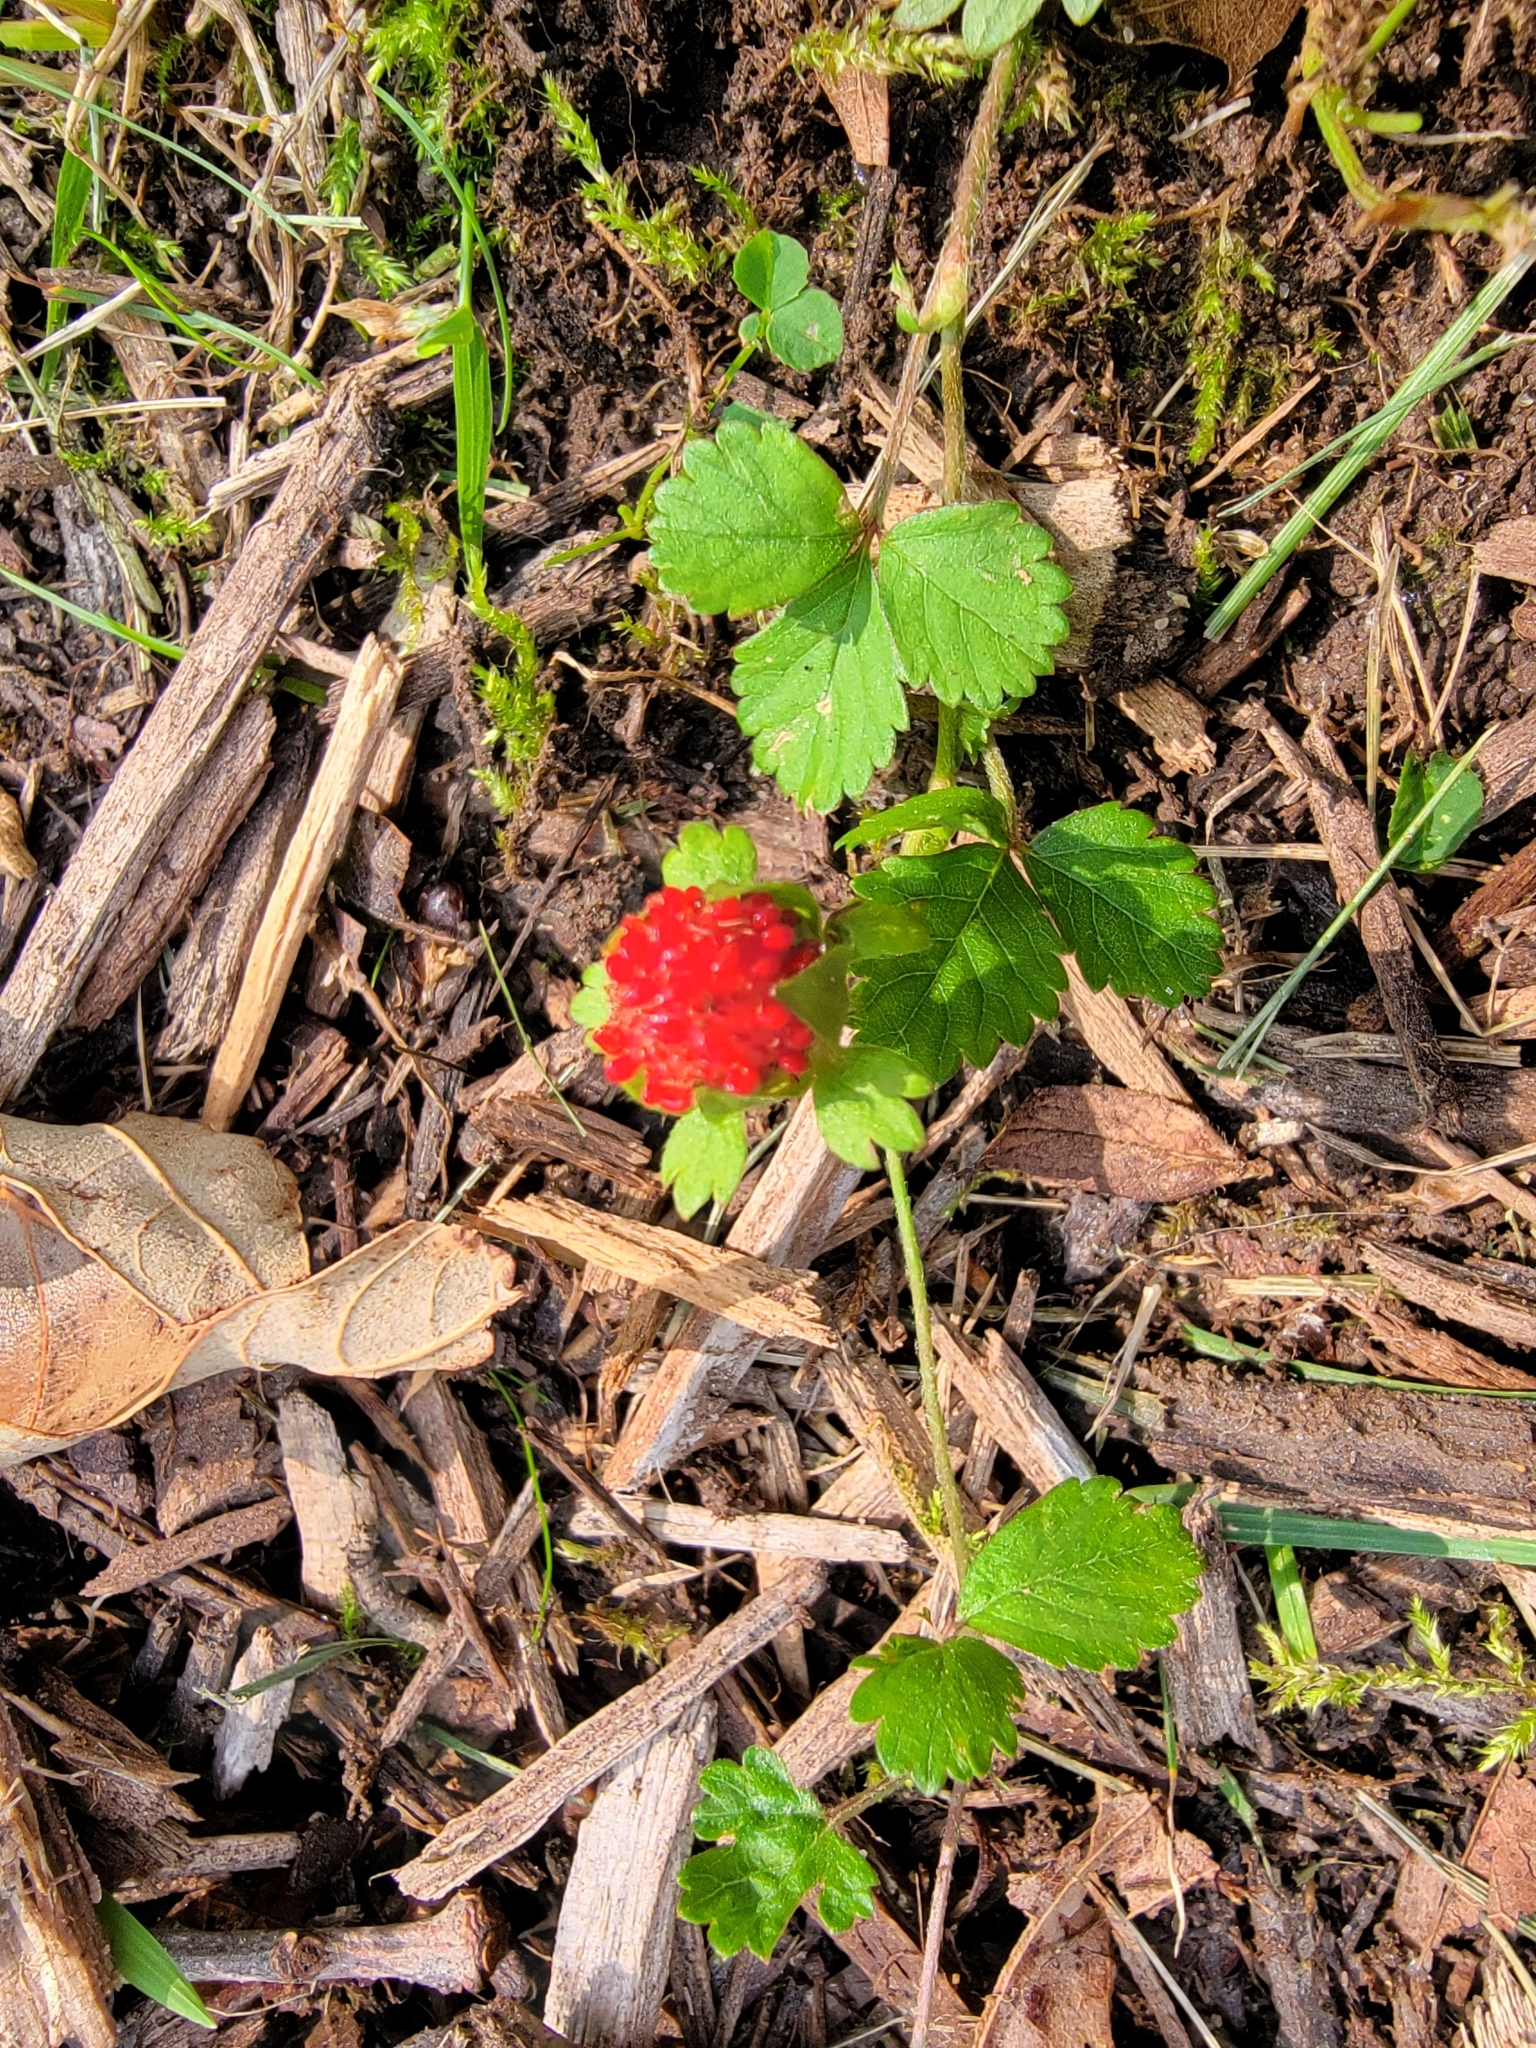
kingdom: Plantae
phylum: Tracheophyta
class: Magnoliopsida
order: Rosales
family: Rosaceae
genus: Potentilla
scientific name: Potentilla indica
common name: Yellow-flowered strawberry
